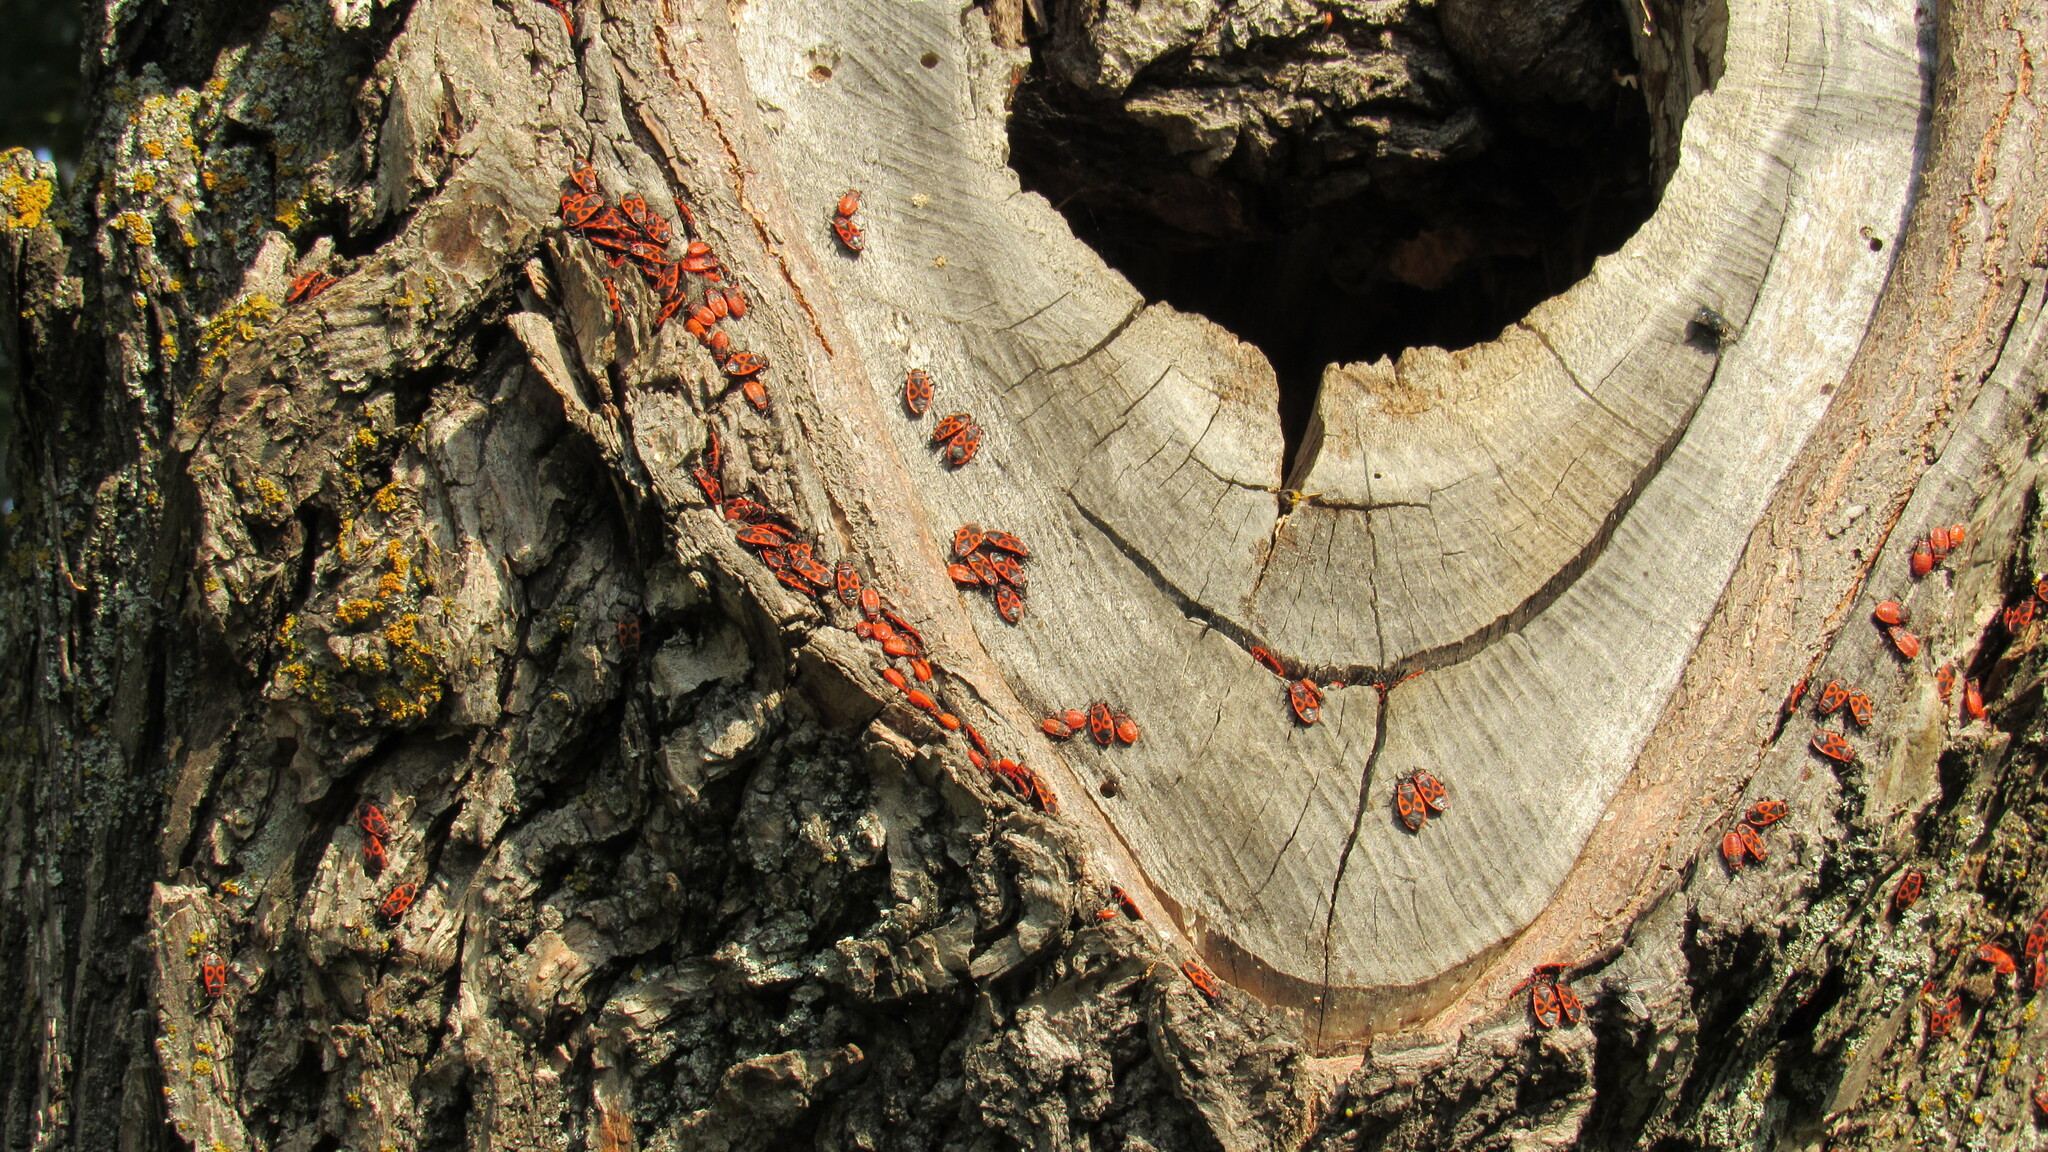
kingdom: Animalia
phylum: Arthropoda
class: Insecta
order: Hemiptera
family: Pyrrhocoridae
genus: Pyrrhocoris
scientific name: Pyrrhocoris apterus
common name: Firebug
